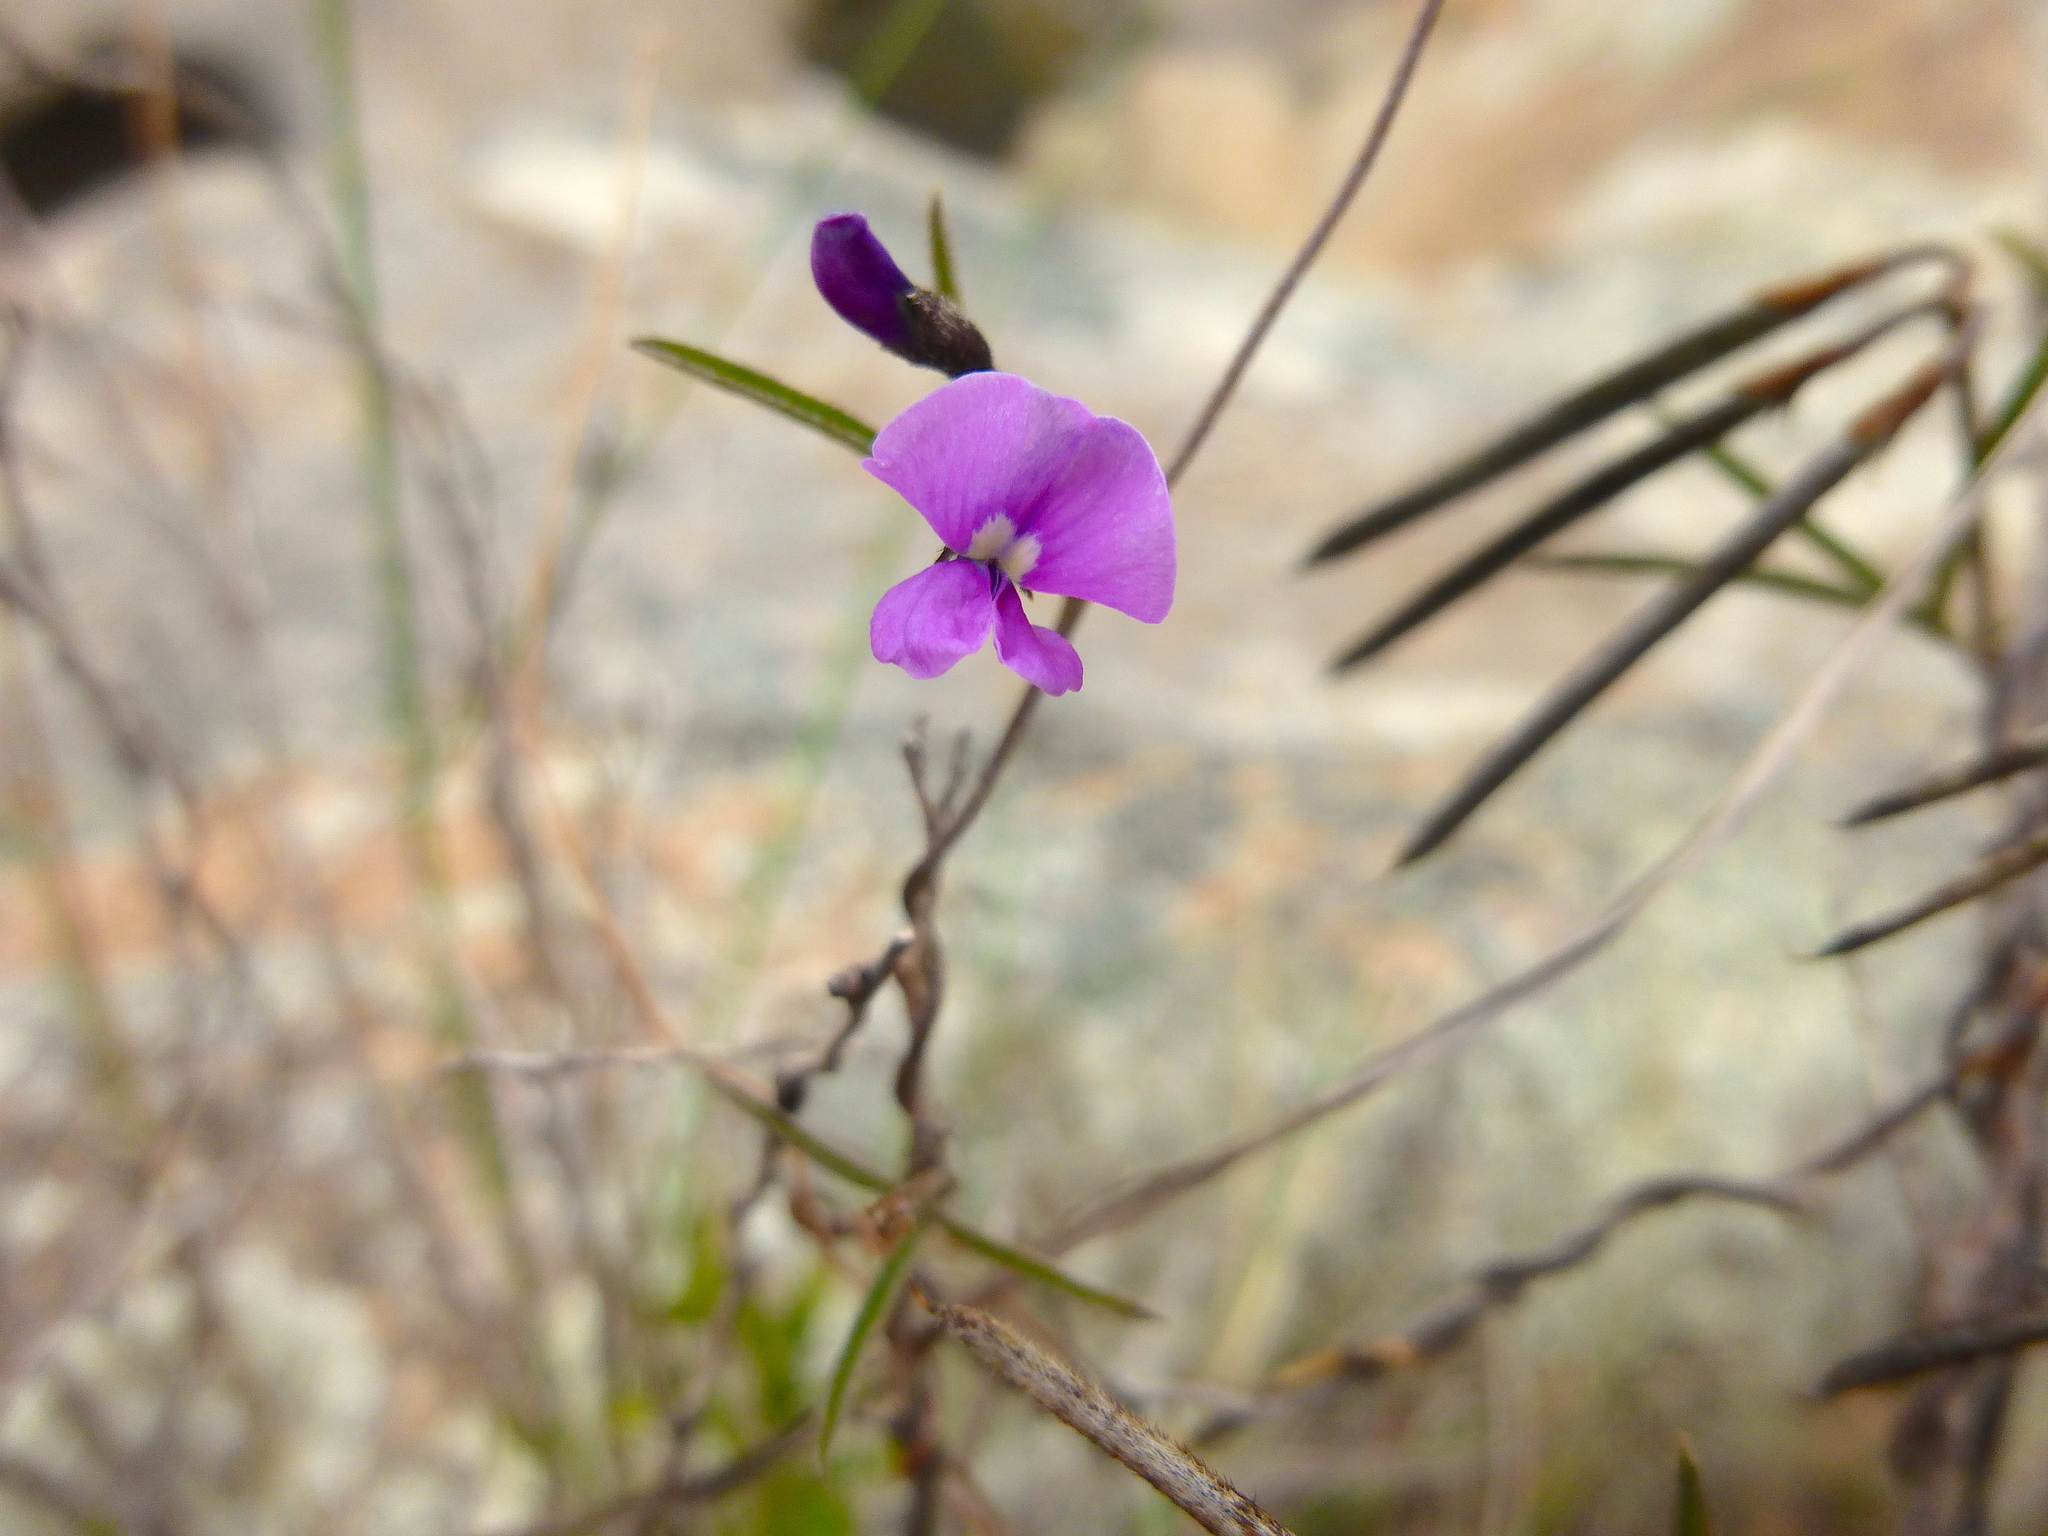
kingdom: Plantae
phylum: Tracheophyta
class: Magnoliopsida
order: Fabales
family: Fabaceae
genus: Glycine
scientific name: Glycine rubiginosa
